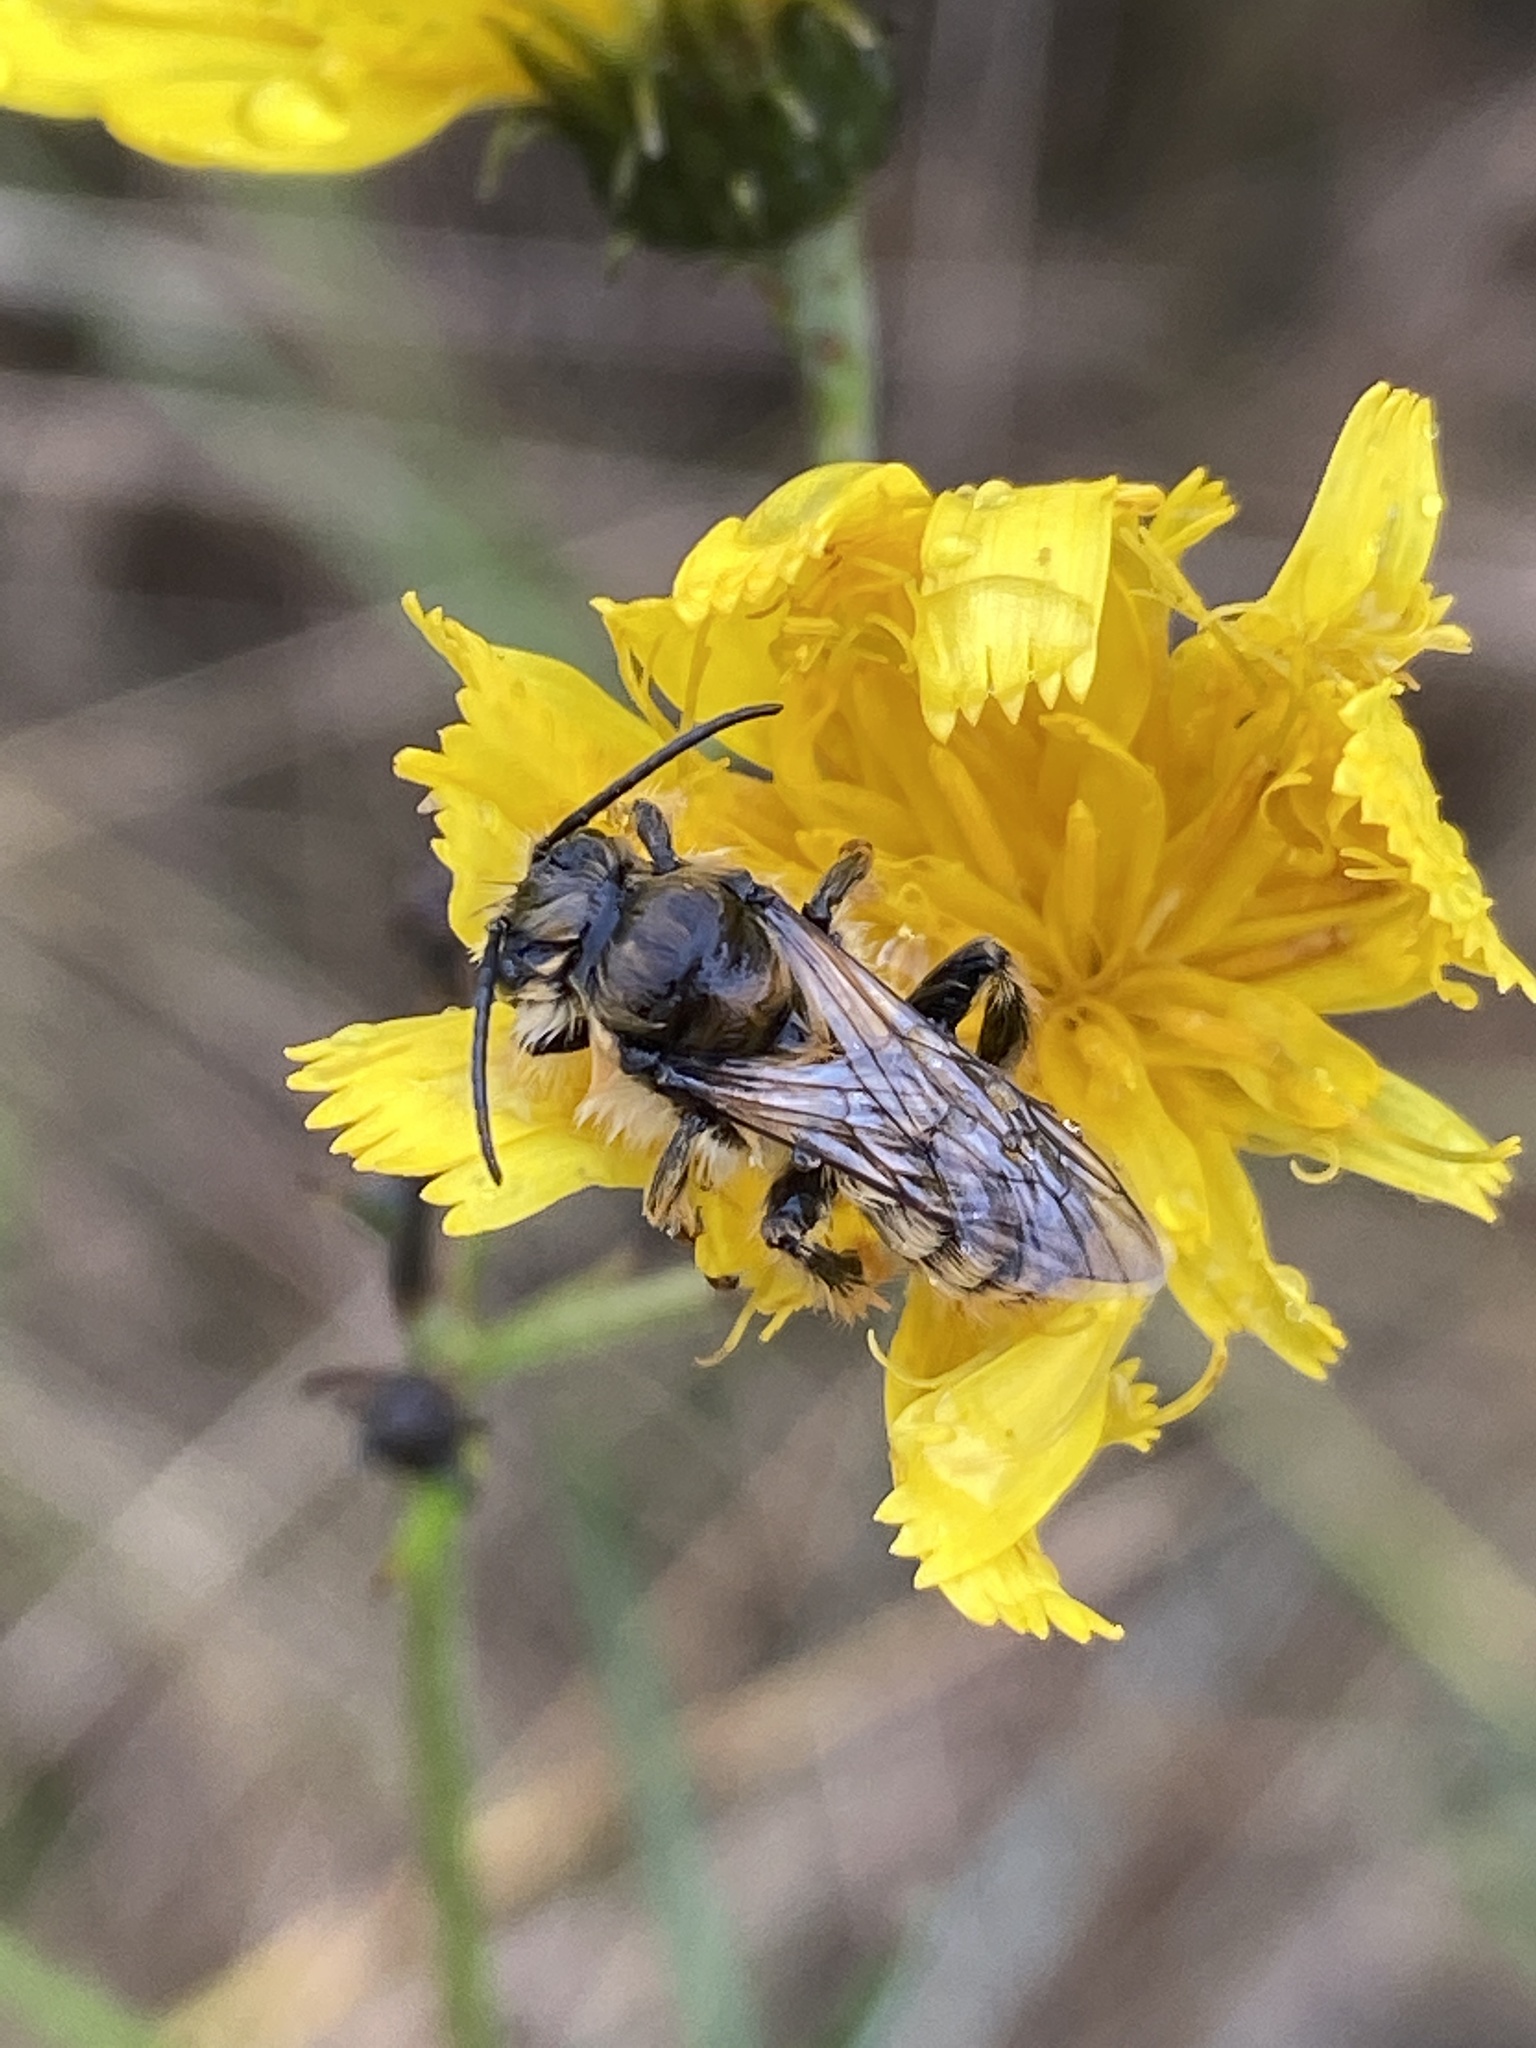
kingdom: Animalia
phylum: Arthropoda
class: Insecta
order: Hymenoptera
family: Melittidae
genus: Dasypoda
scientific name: Dasypoda hirtipes
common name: Pantaloon bee
